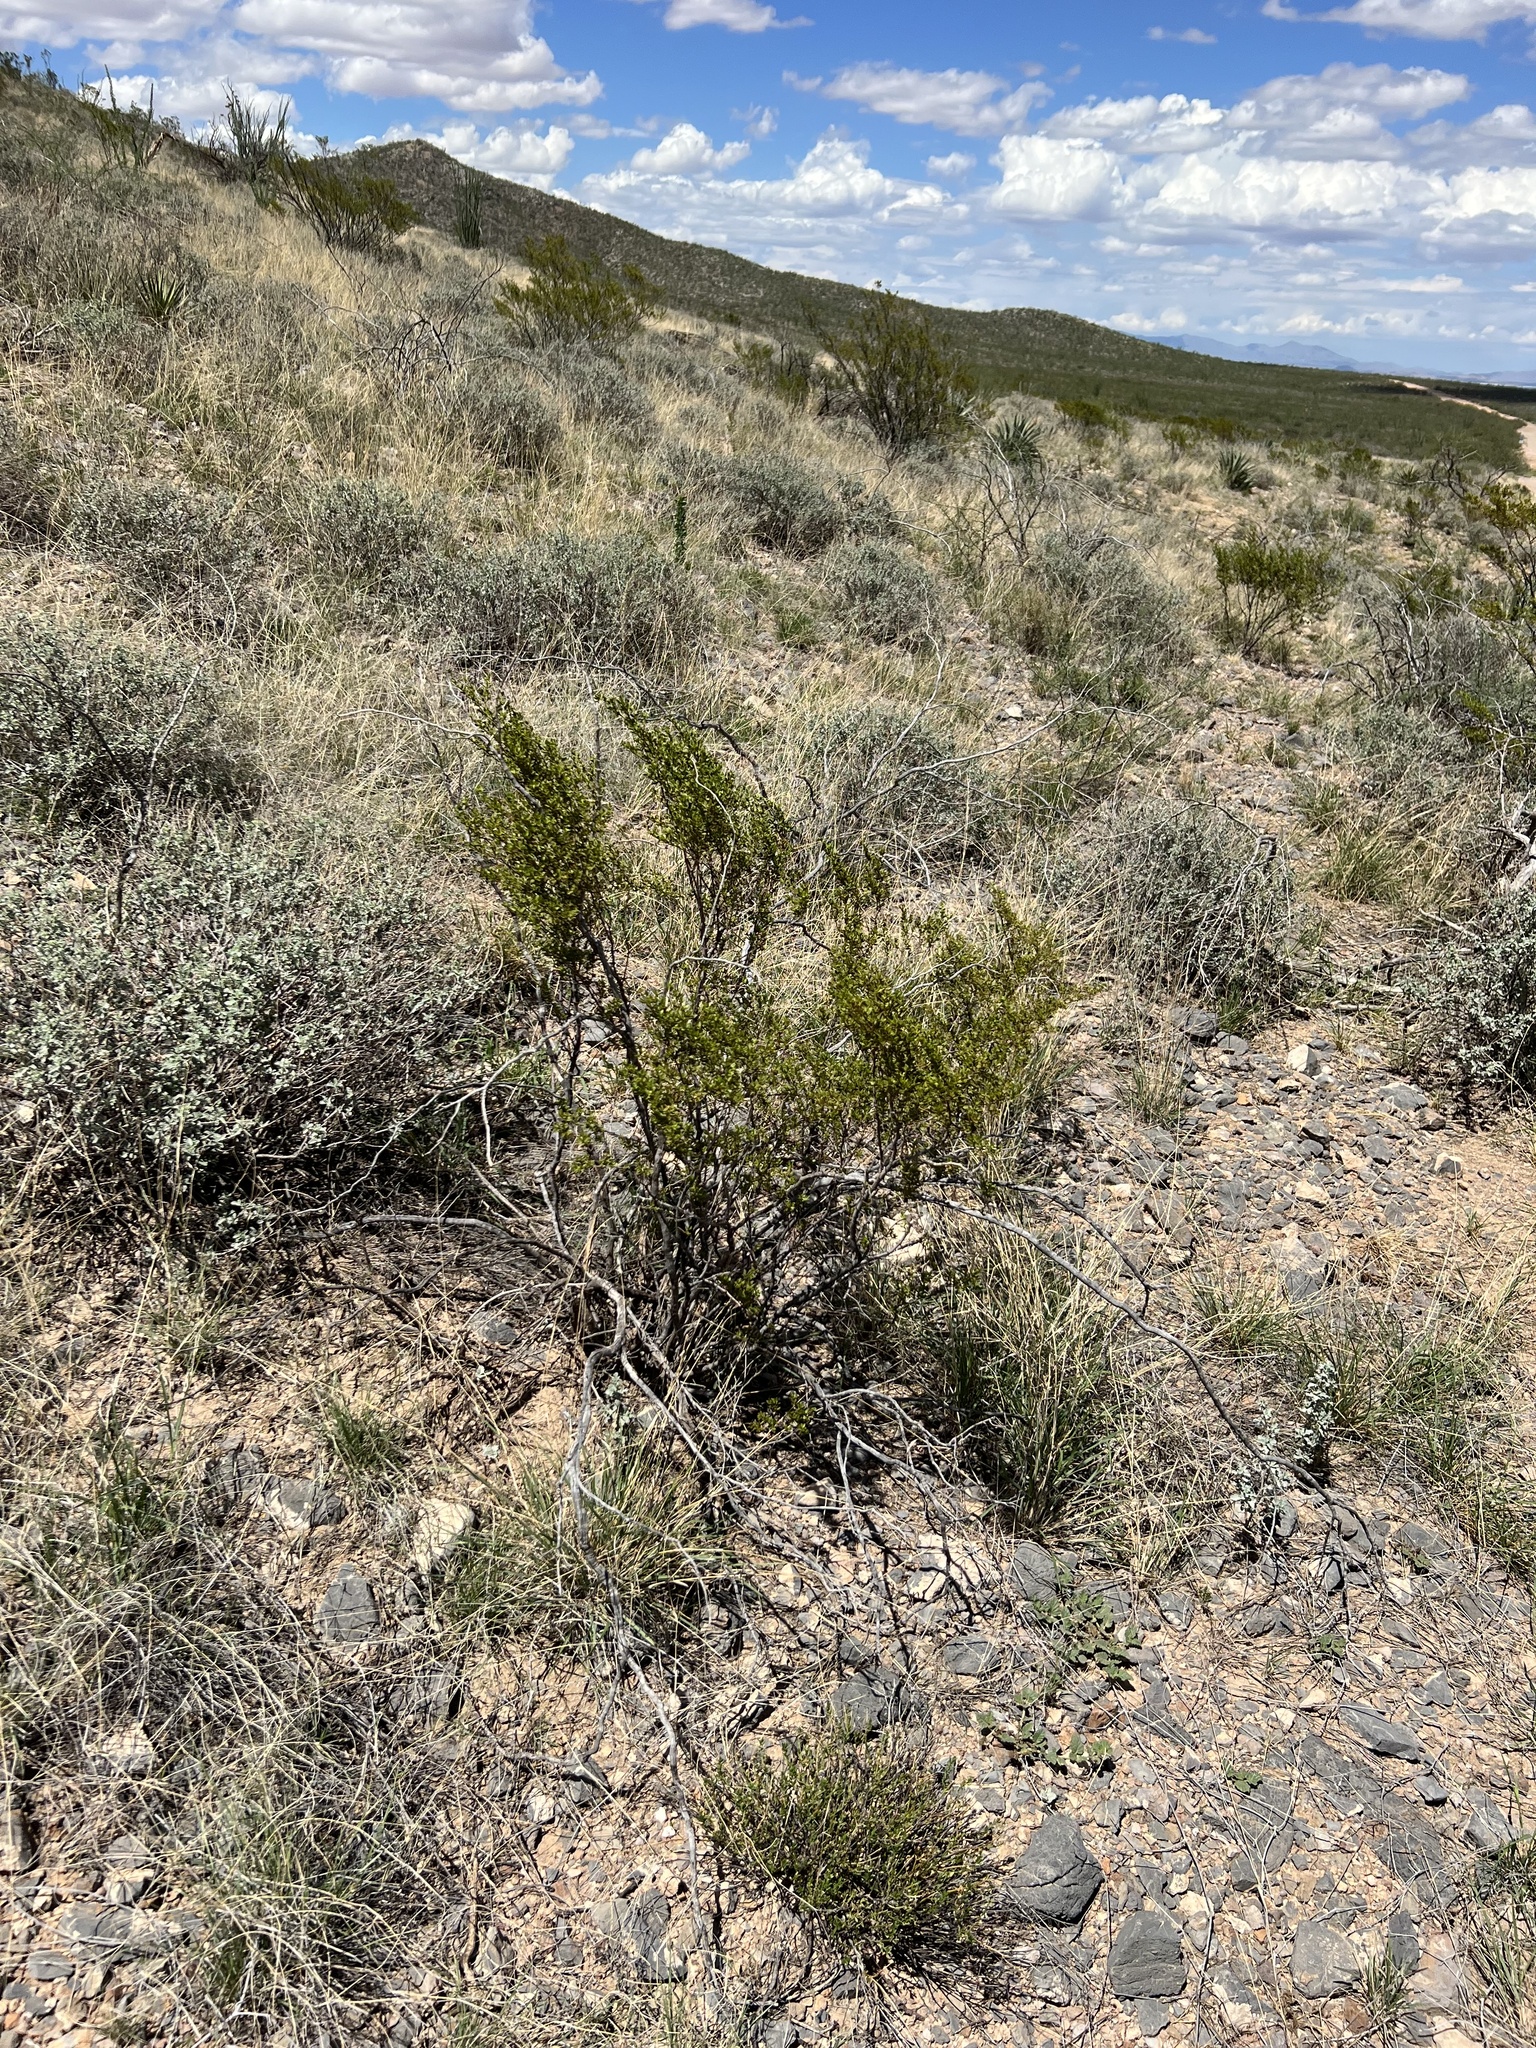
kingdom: Plantae
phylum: Tracheophyta
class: Magnoliopsida
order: Zygophyllales
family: Zygophyllaceae
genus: Larrea
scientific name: Larrea tridentata
